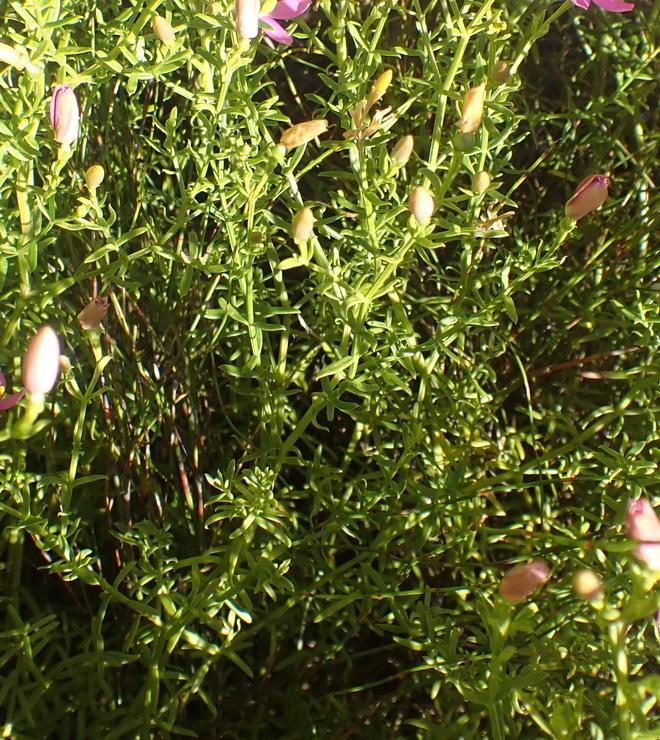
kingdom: Plantae
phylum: Tracheophyta
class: Magnoliopsida
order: Gentianales
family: Gentianaceae
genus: Chironia
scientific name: Chironia baccifera
